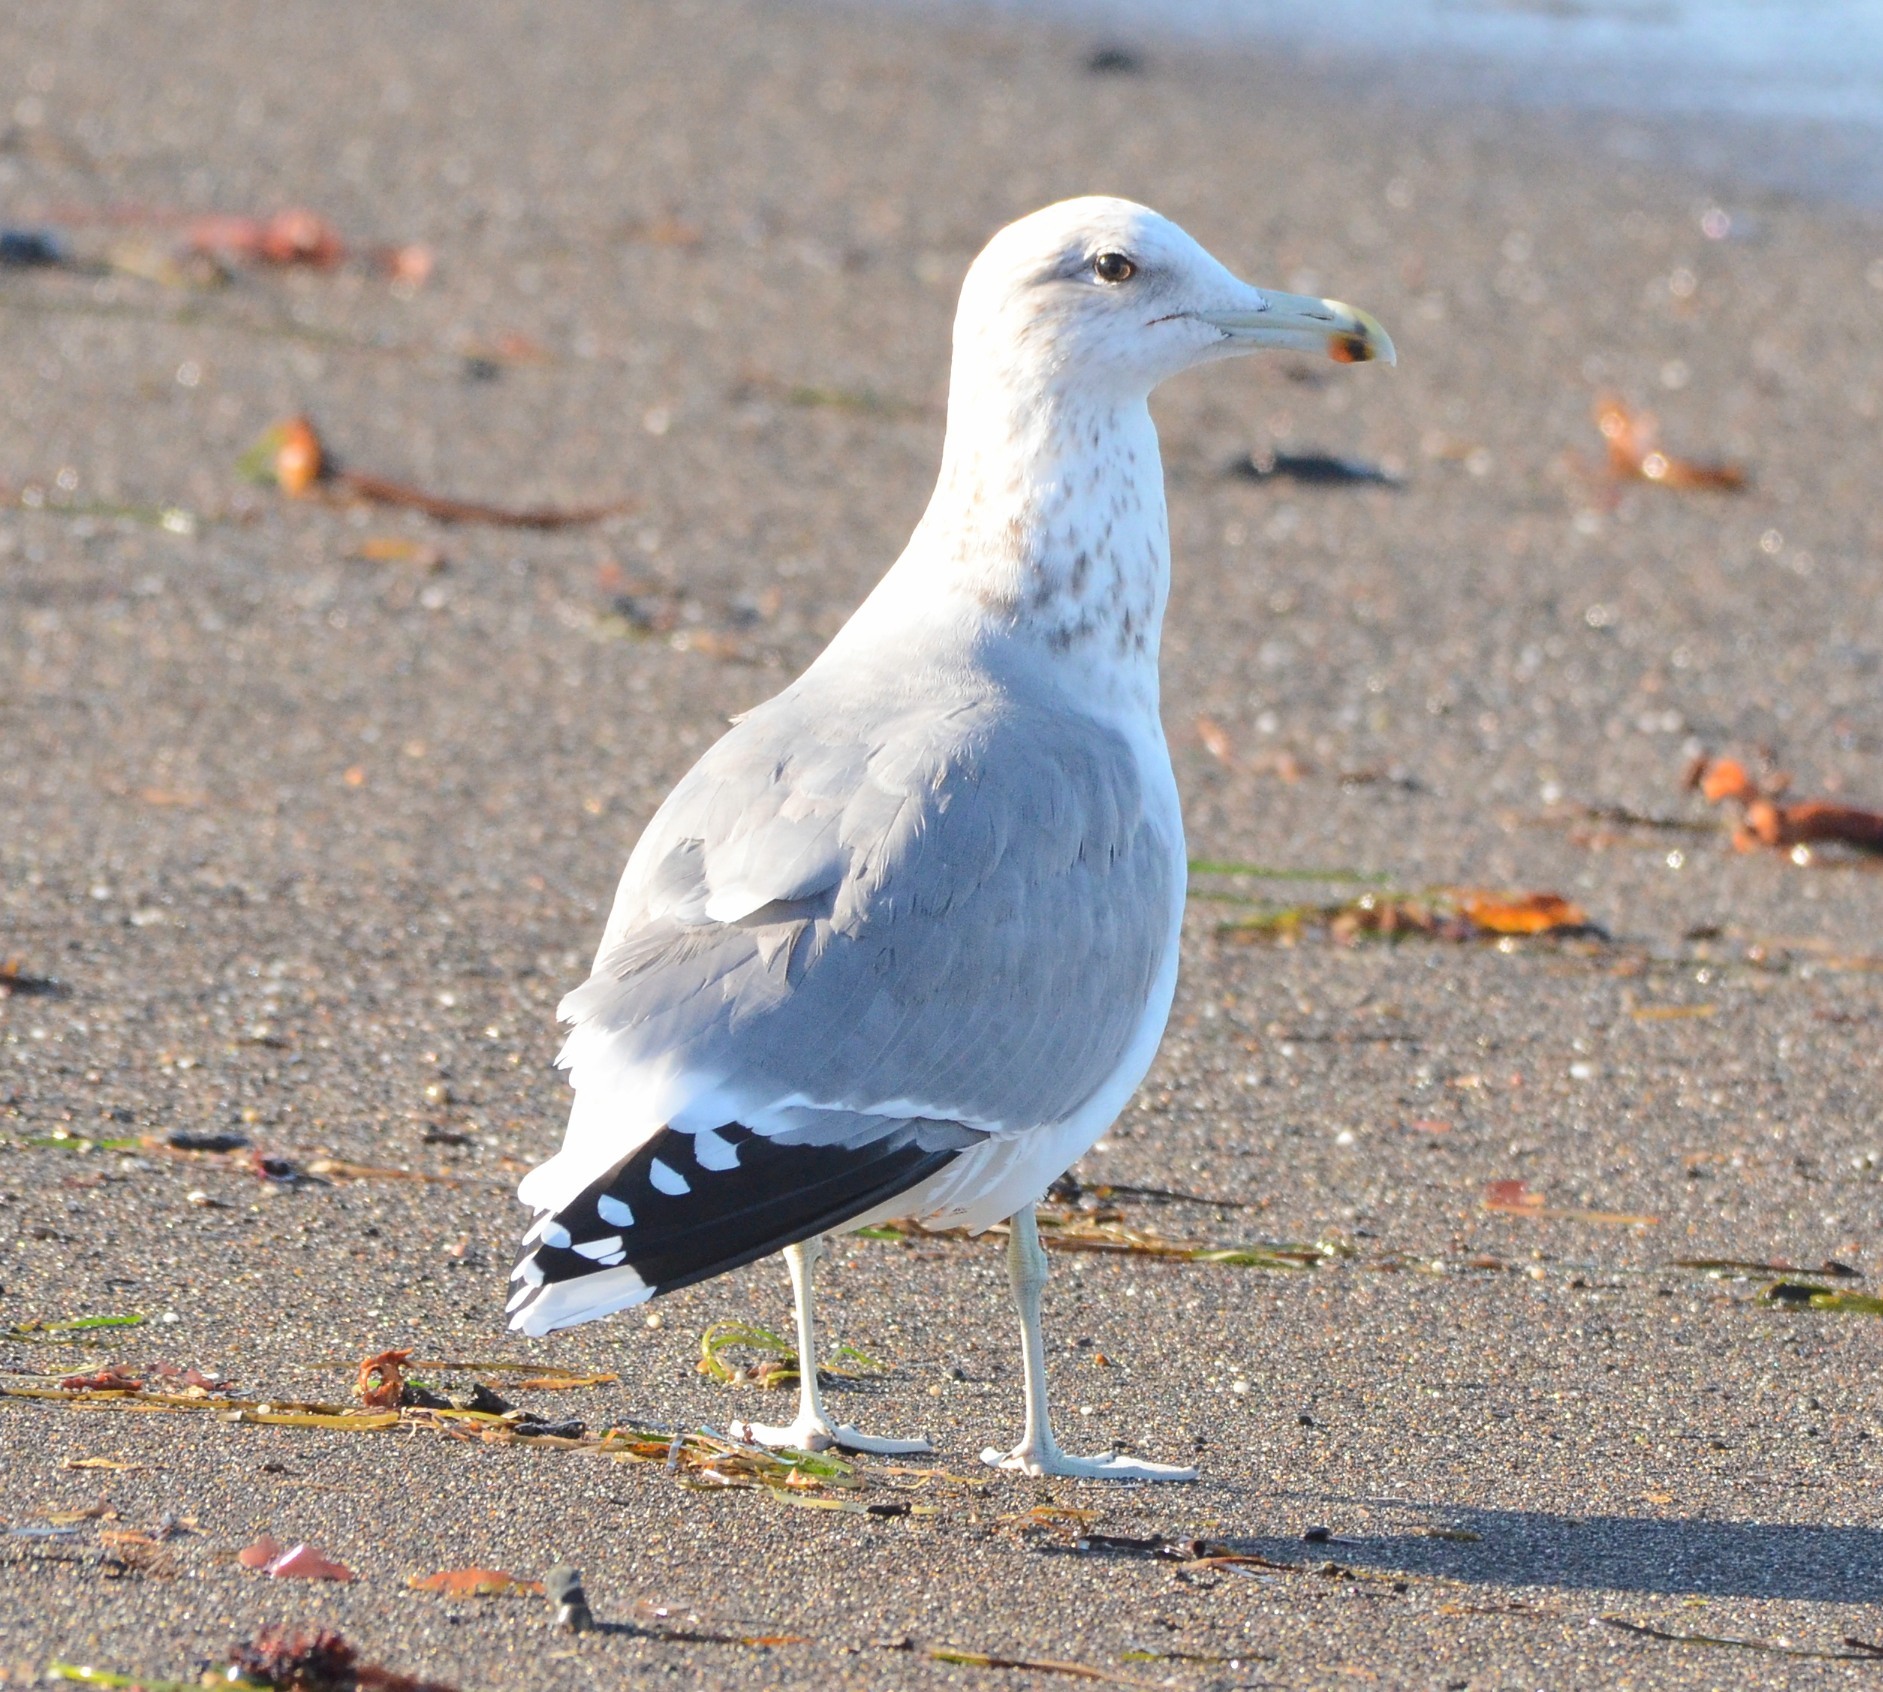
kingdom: Animalia
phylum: Chordata
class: Aves
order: Charadriiformes
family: Laridae
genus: Larus
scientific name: Larus californicus
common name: California gull
